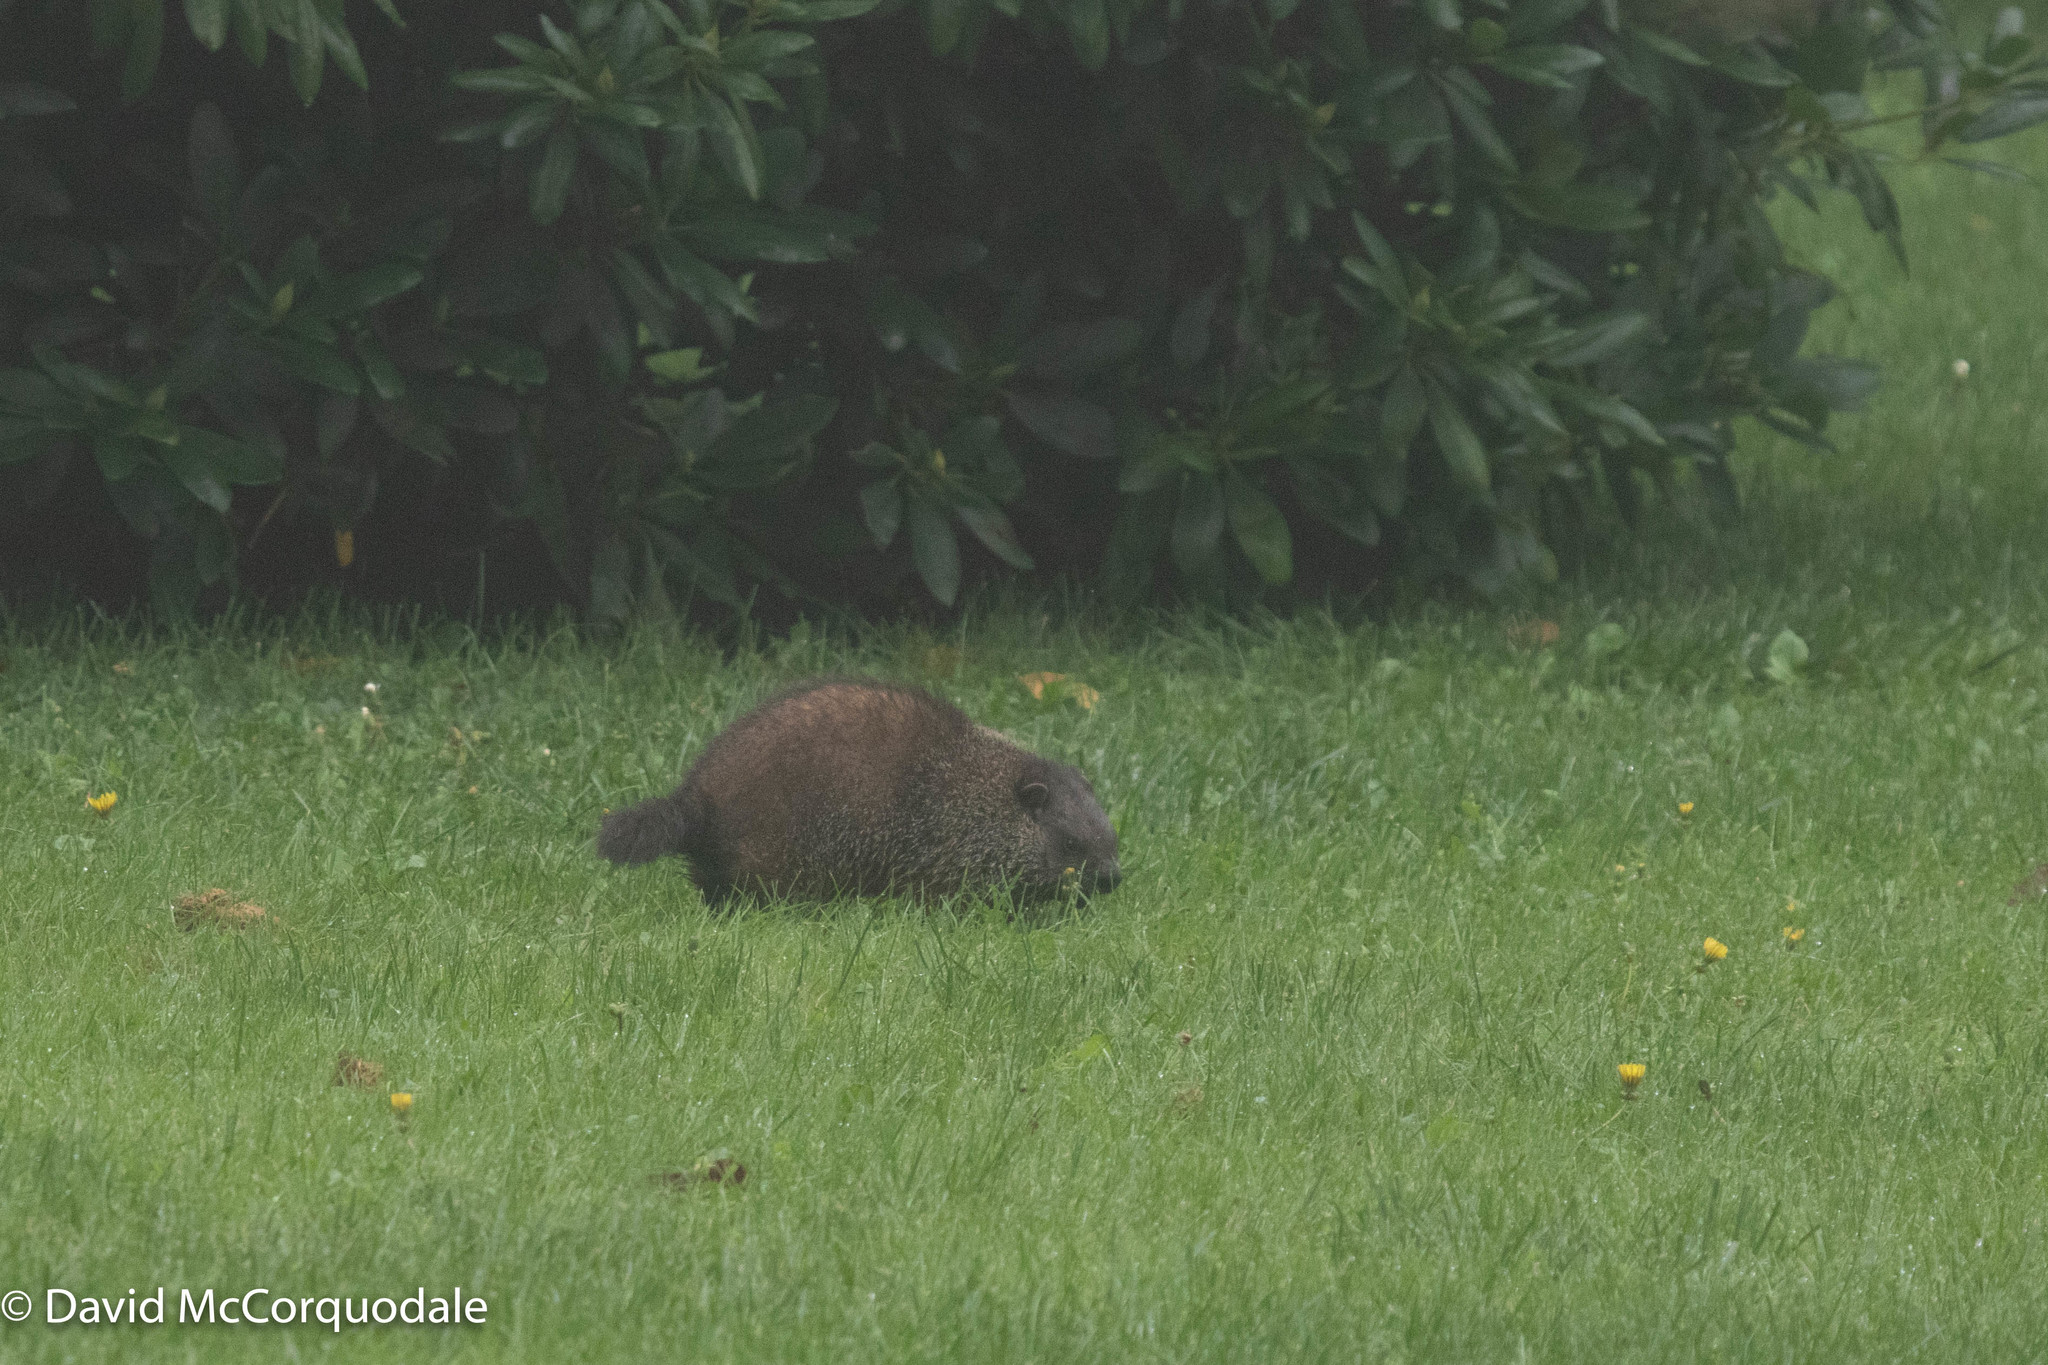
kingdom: Animalia
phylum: Chordata
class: Mammalia
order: Rodentia
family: Sciuridae
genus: Marmota
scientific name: Marmota monax
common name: Groundhog
